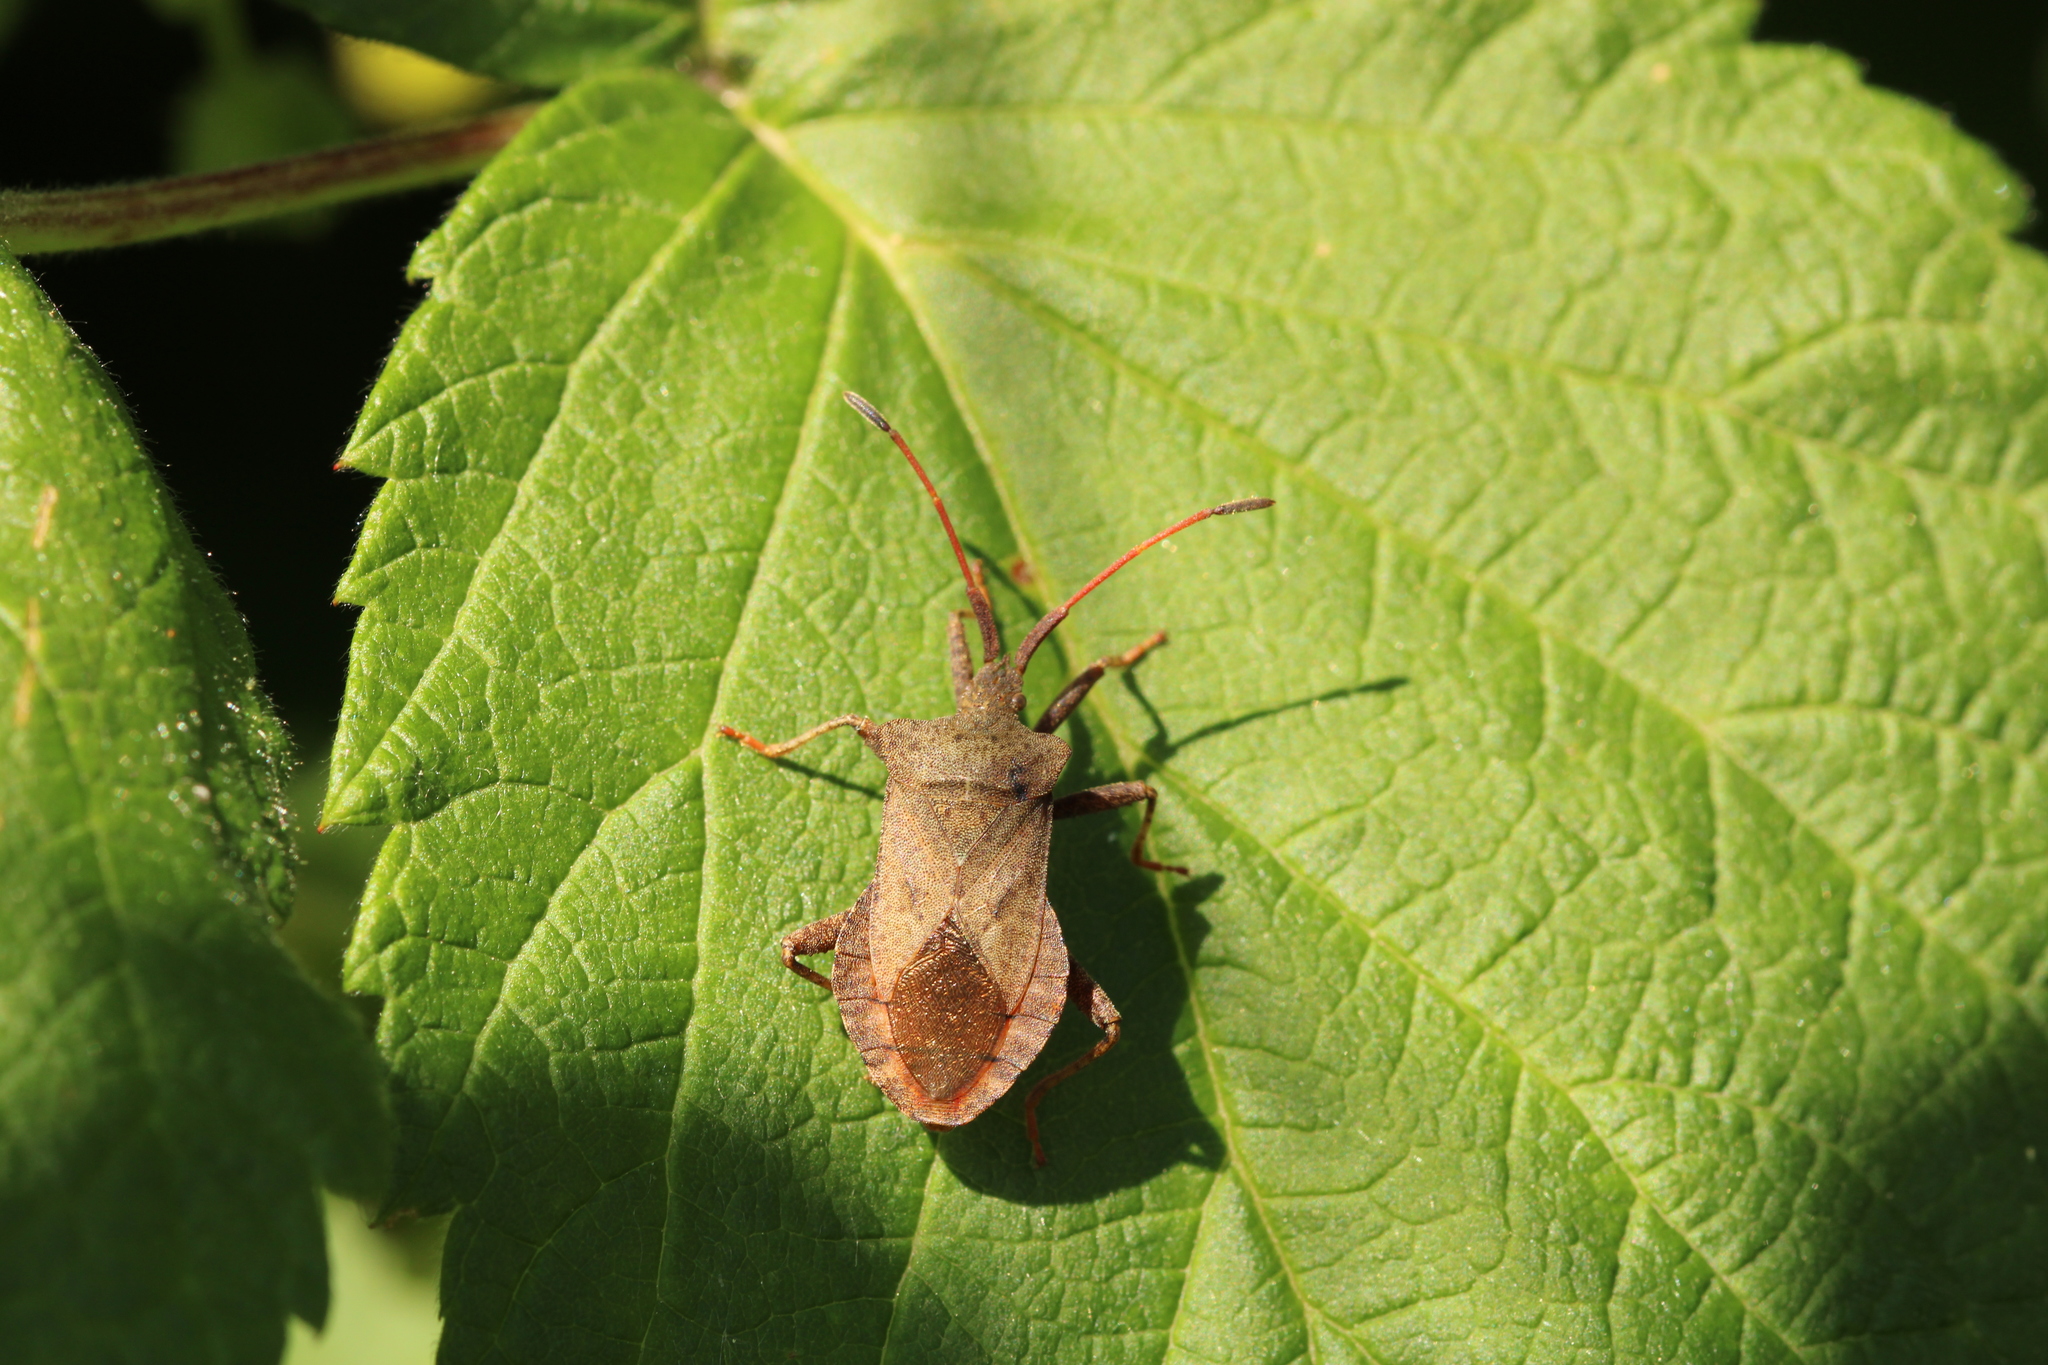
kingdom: Animalia
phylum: Arthropoda
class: Insecta
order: Hemiptera
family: Coreidae
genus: Coreus
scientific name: Coreus marginatus
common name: Dock bug
